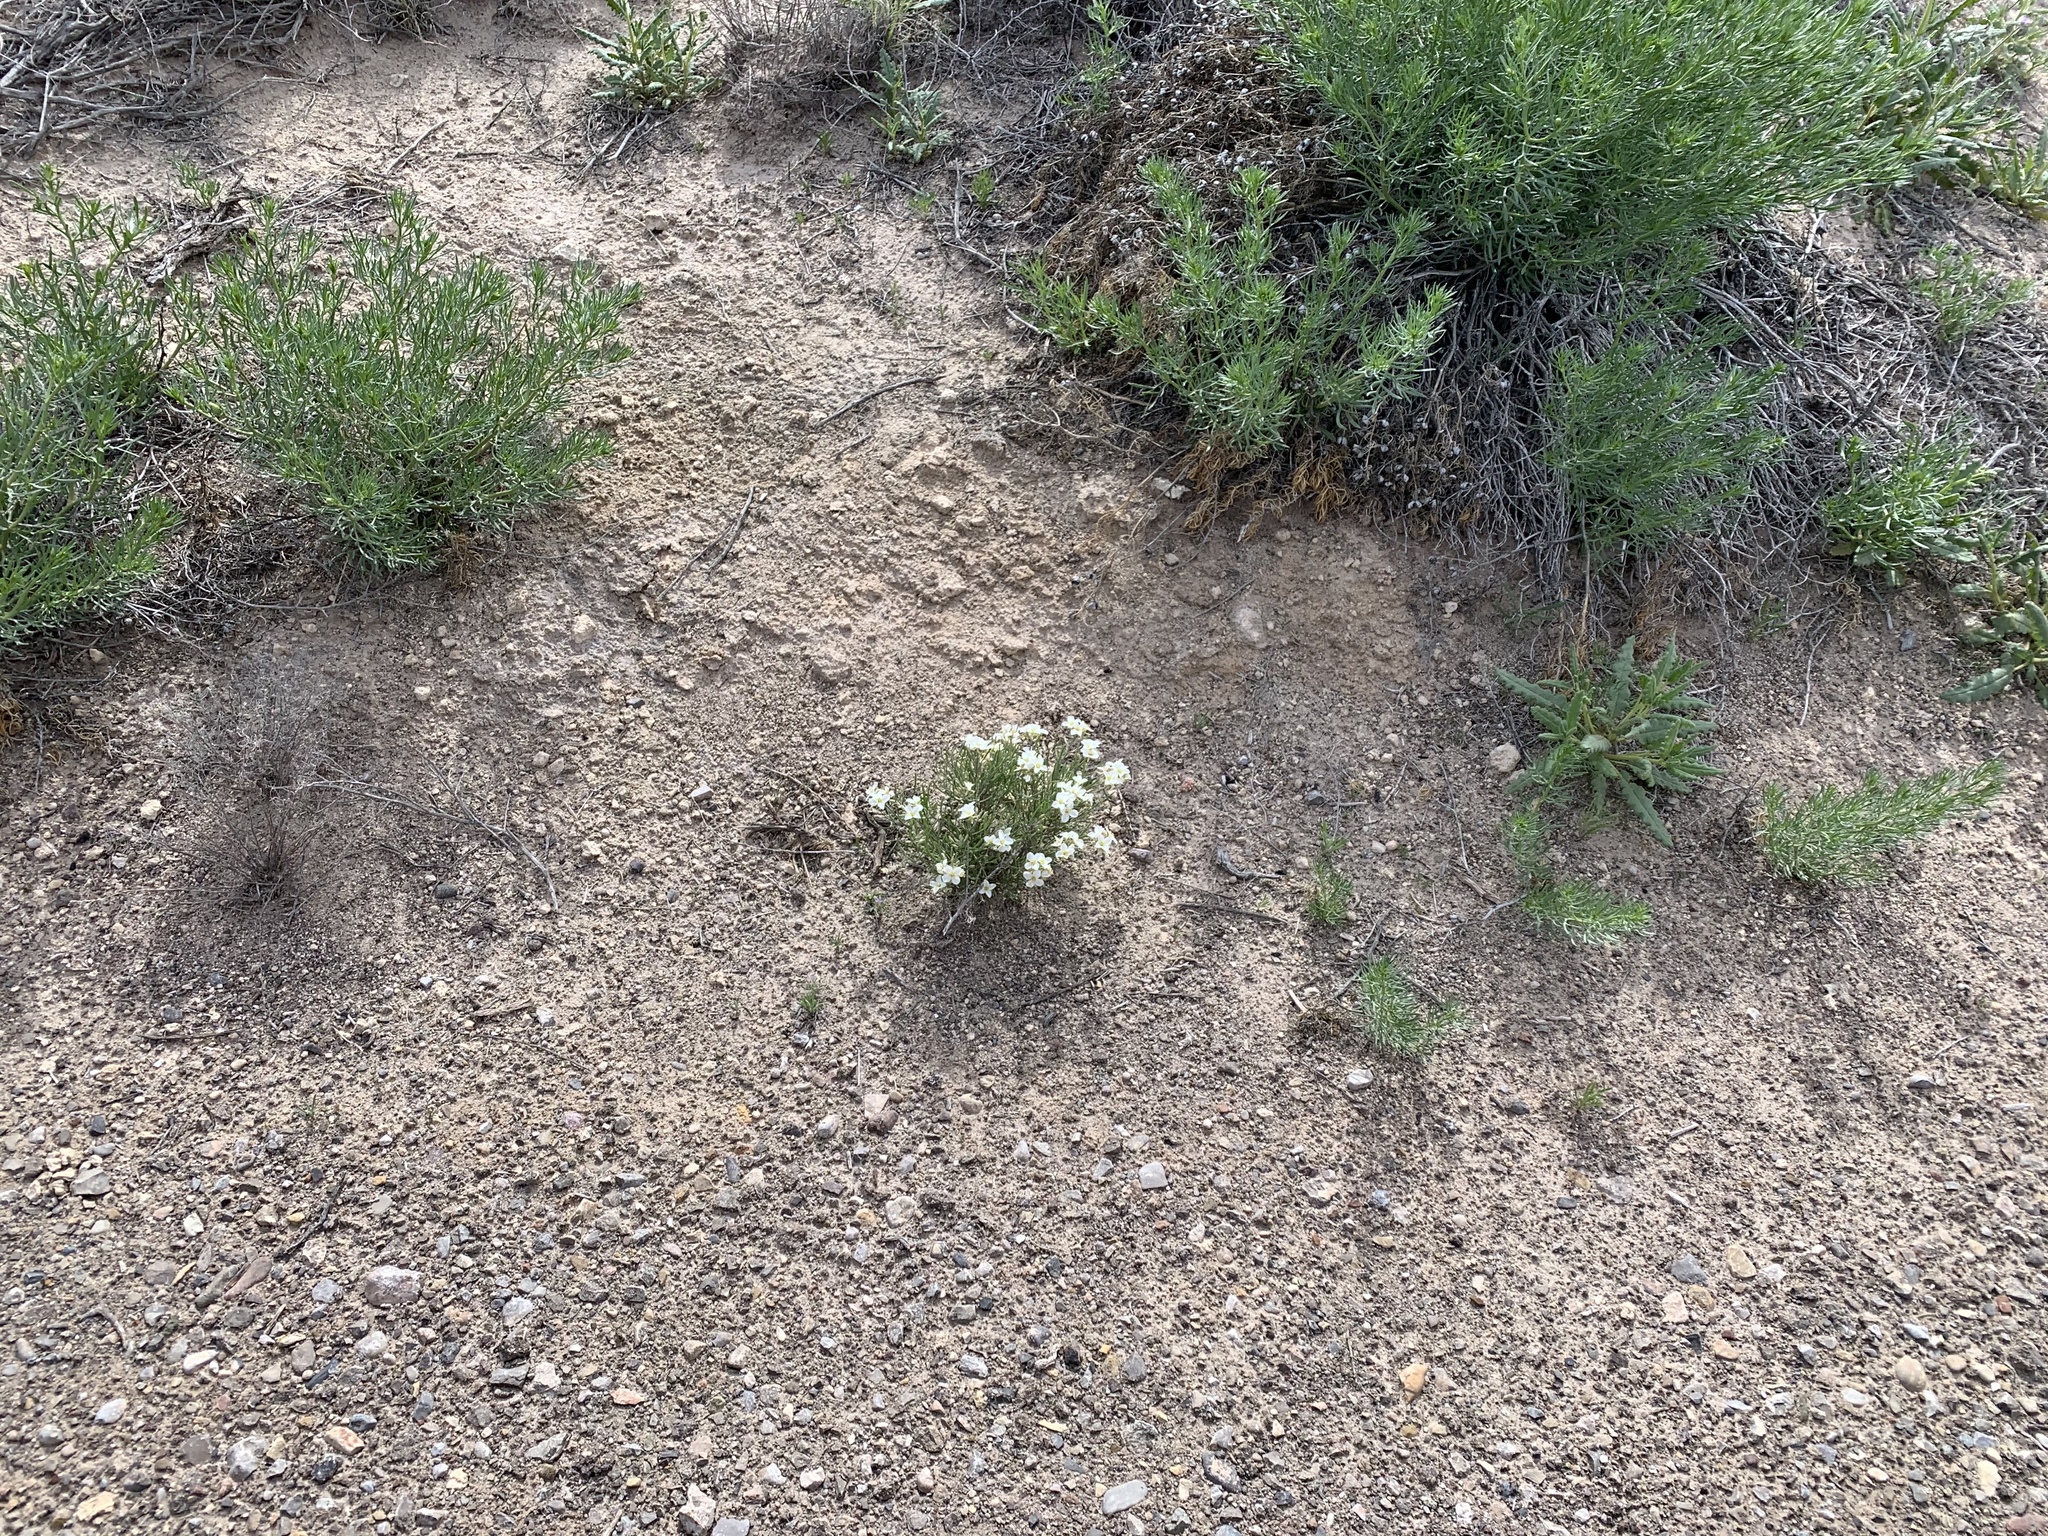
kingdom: Plantae
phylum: Tracheophyta
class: Magnoliopsida
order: Brassicales
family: Brassicaceae
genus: Nerisyrenia
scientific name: Nerisyrenia linearifolia
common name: White sands fan mustard
